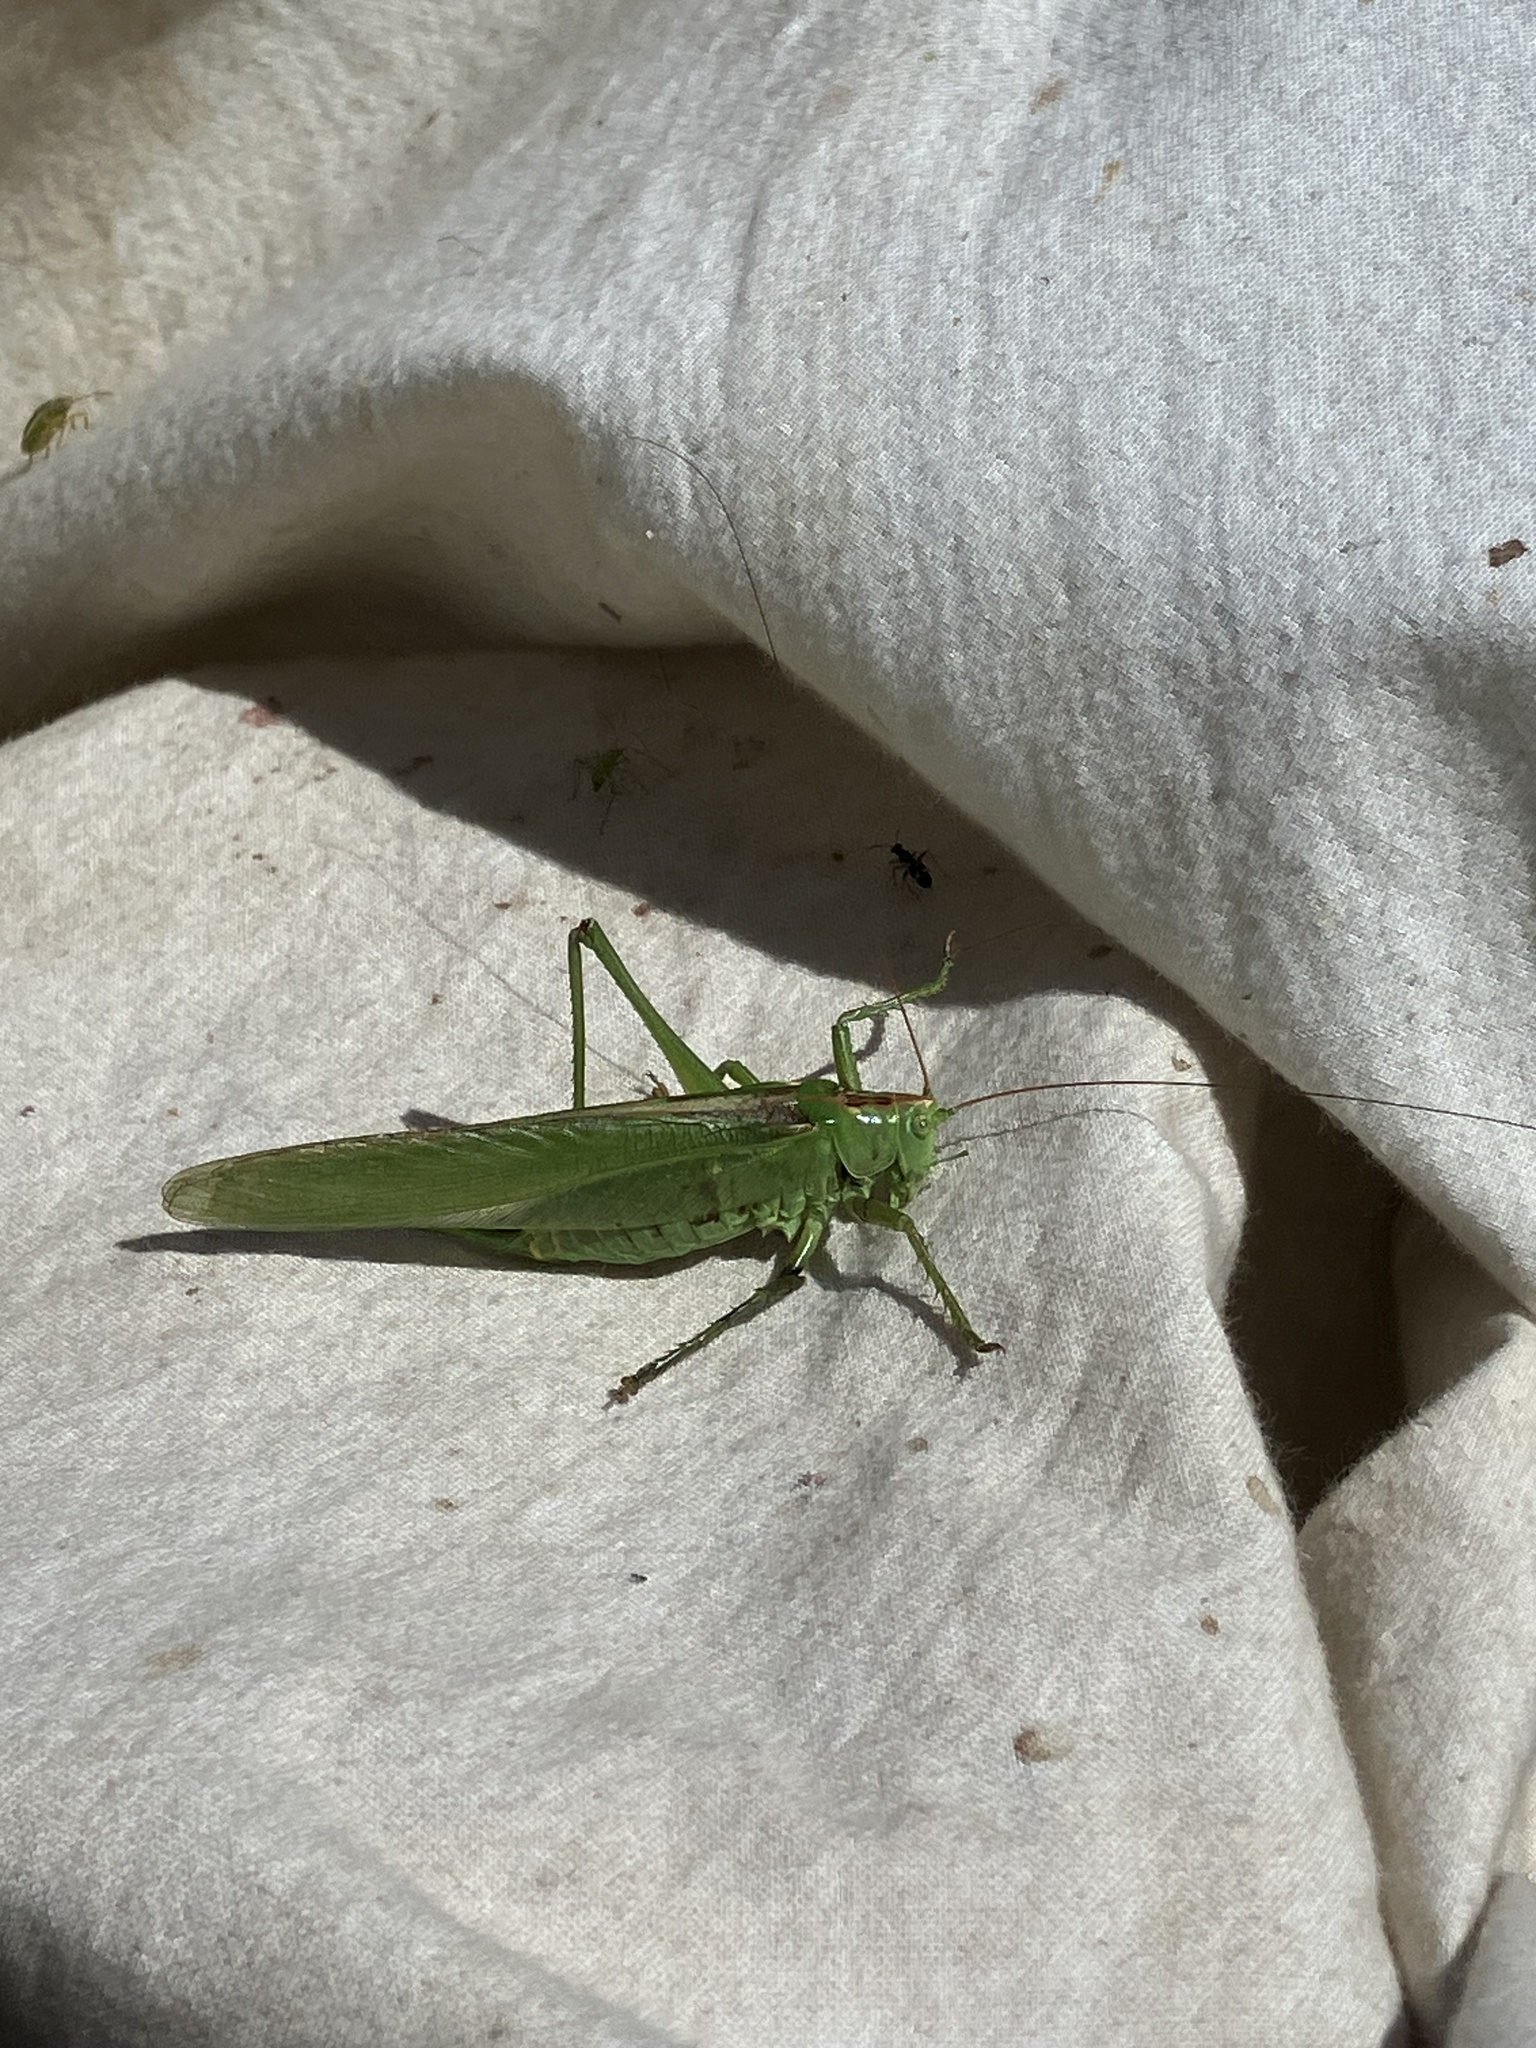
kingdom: Animalia
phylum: Arthropoda
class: Insecta
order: Orthoptera
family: Tettigoniidae
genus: Tettigonia
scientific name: Tettigonia viridissima
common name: Great green bush-cricket
